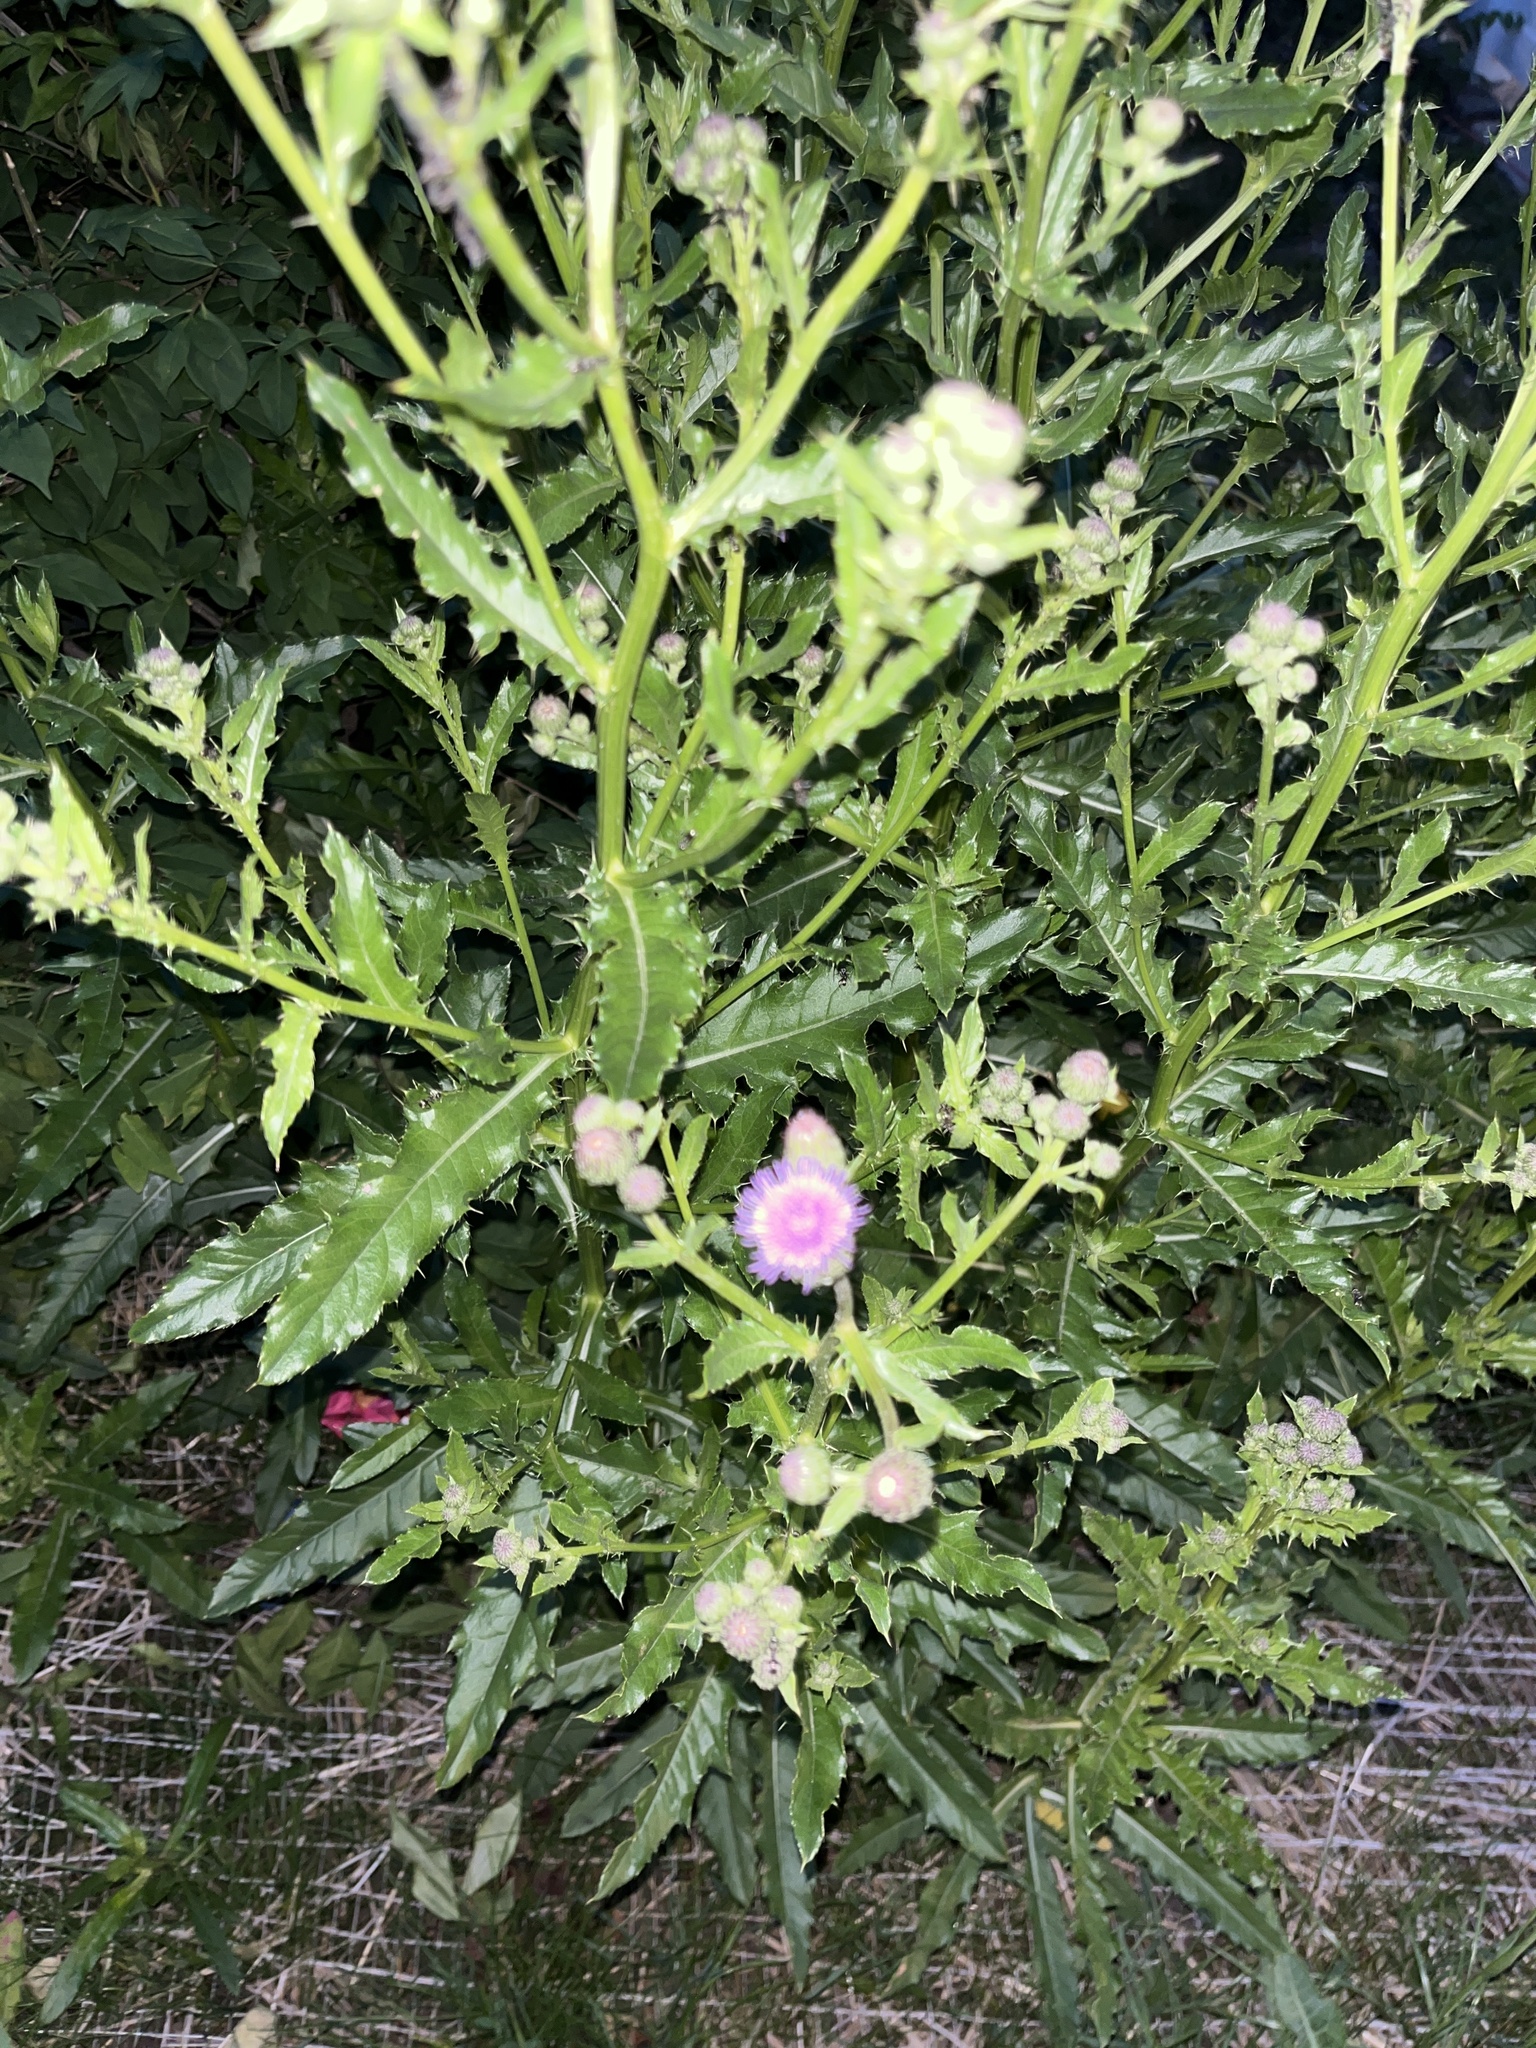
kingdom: Plantae
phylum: Tracheophyta
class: Magnoliopsida
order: Asterales
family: Asteraceae
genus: Cirsium
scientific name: Cirsium arvense
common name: Creeping thistle
